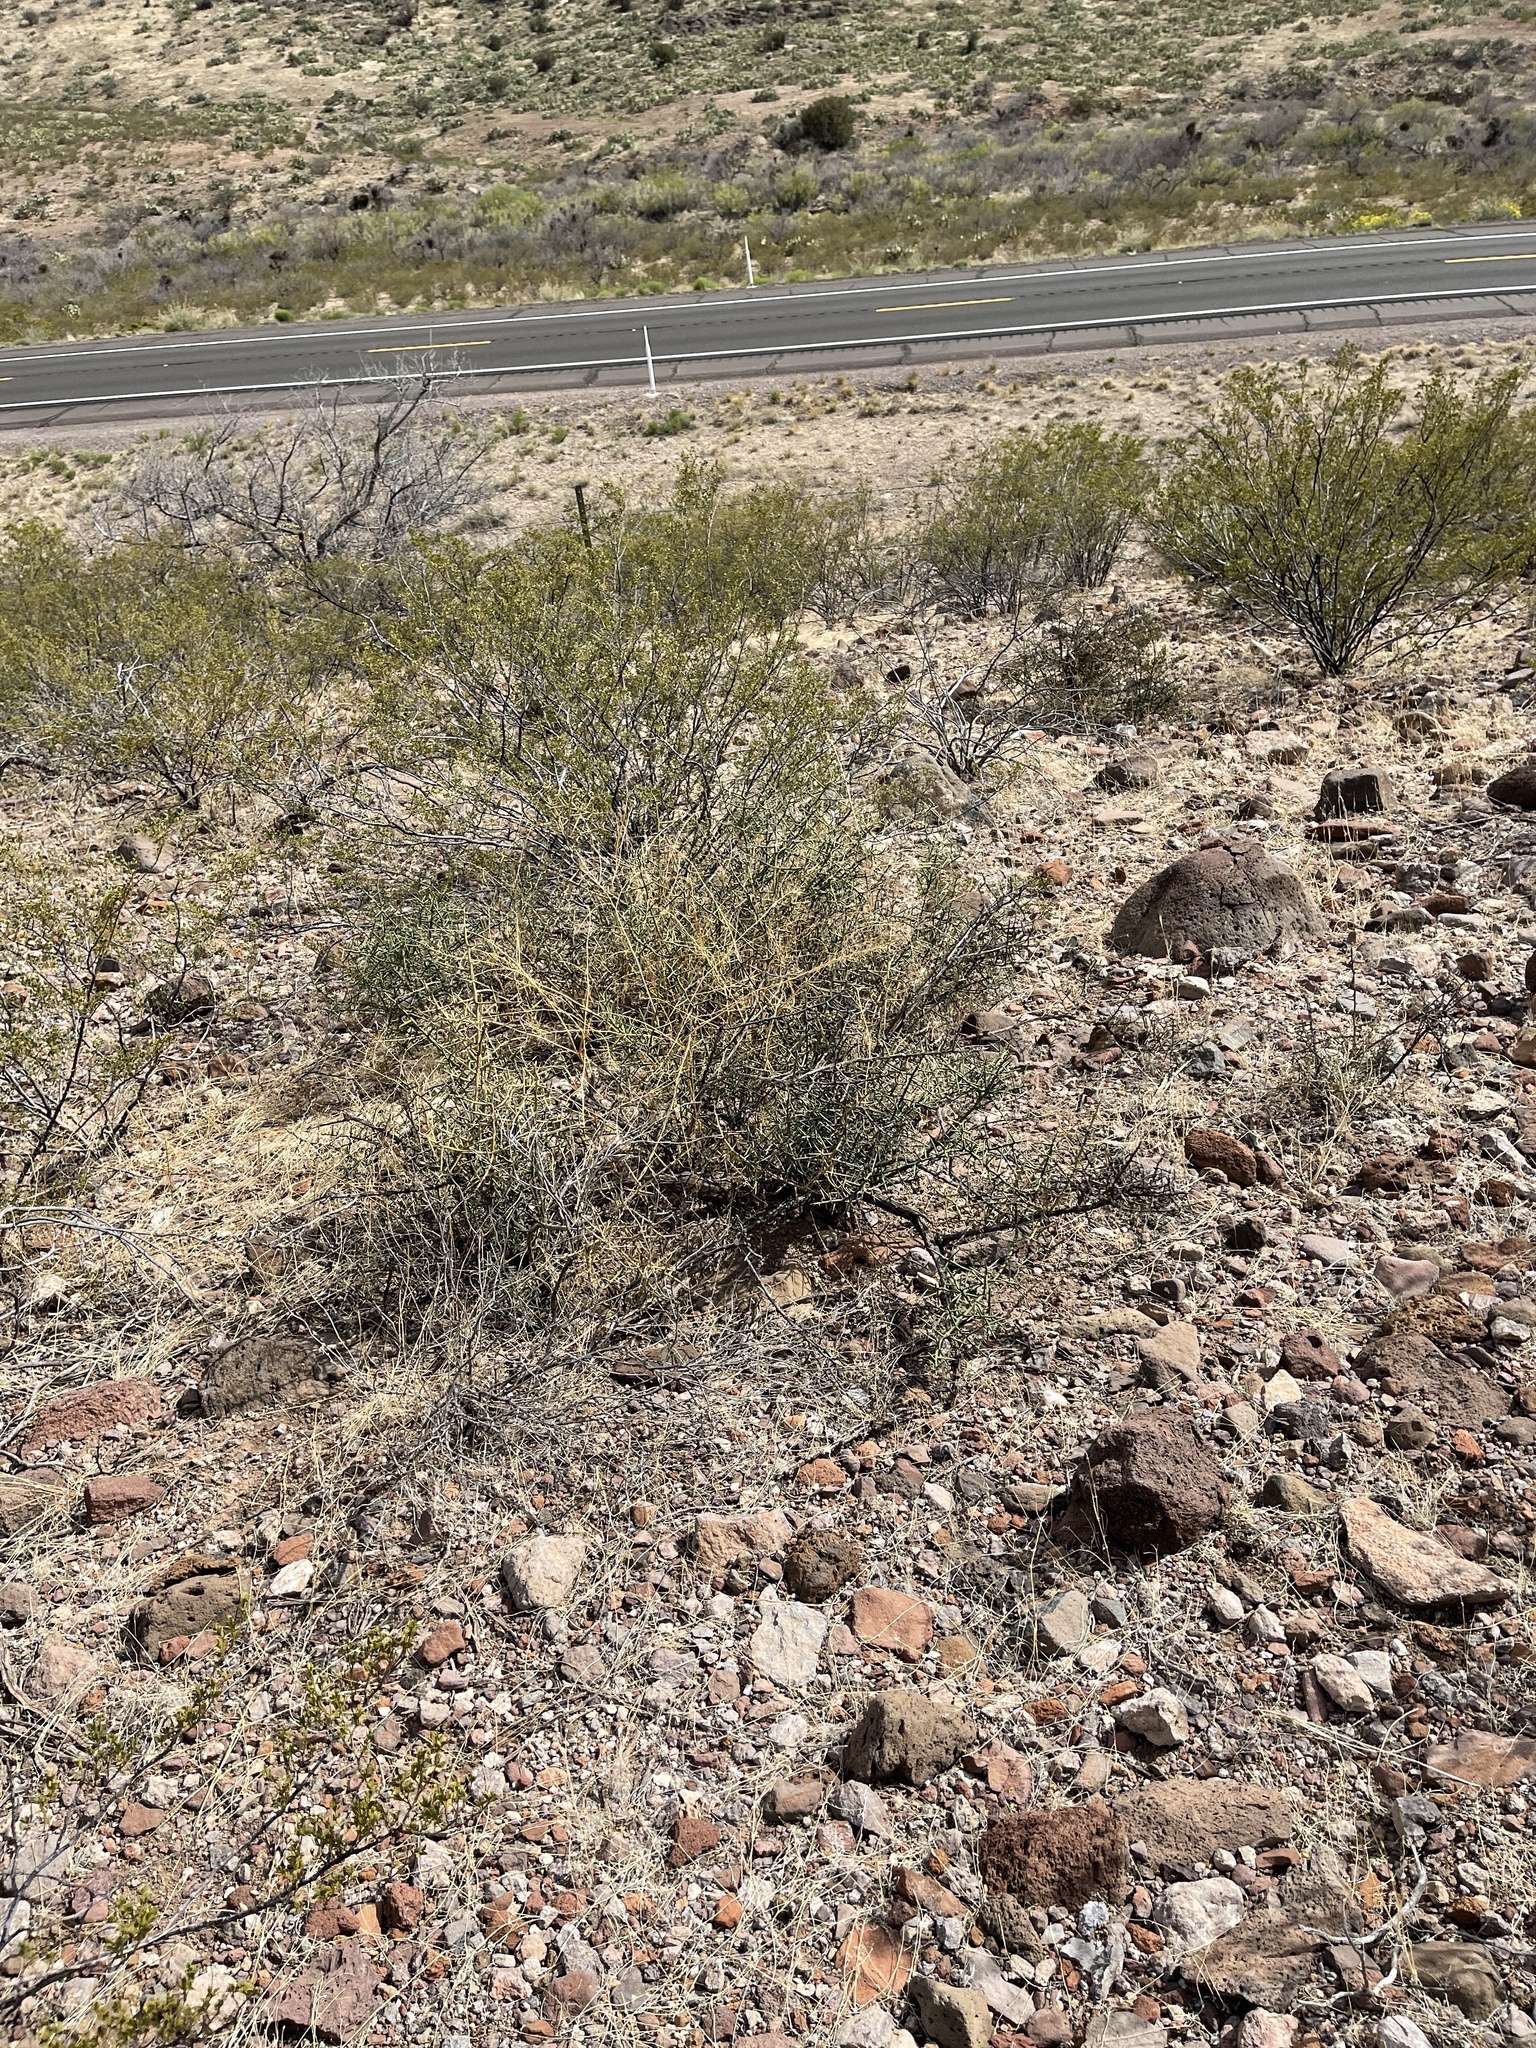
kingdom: Plantae
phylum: Tracheophyta
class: Magnoliopsida
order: Brassicales
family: Koeberliniaceae
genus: Koeberlinia
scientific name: Koeberlinia spinosa
